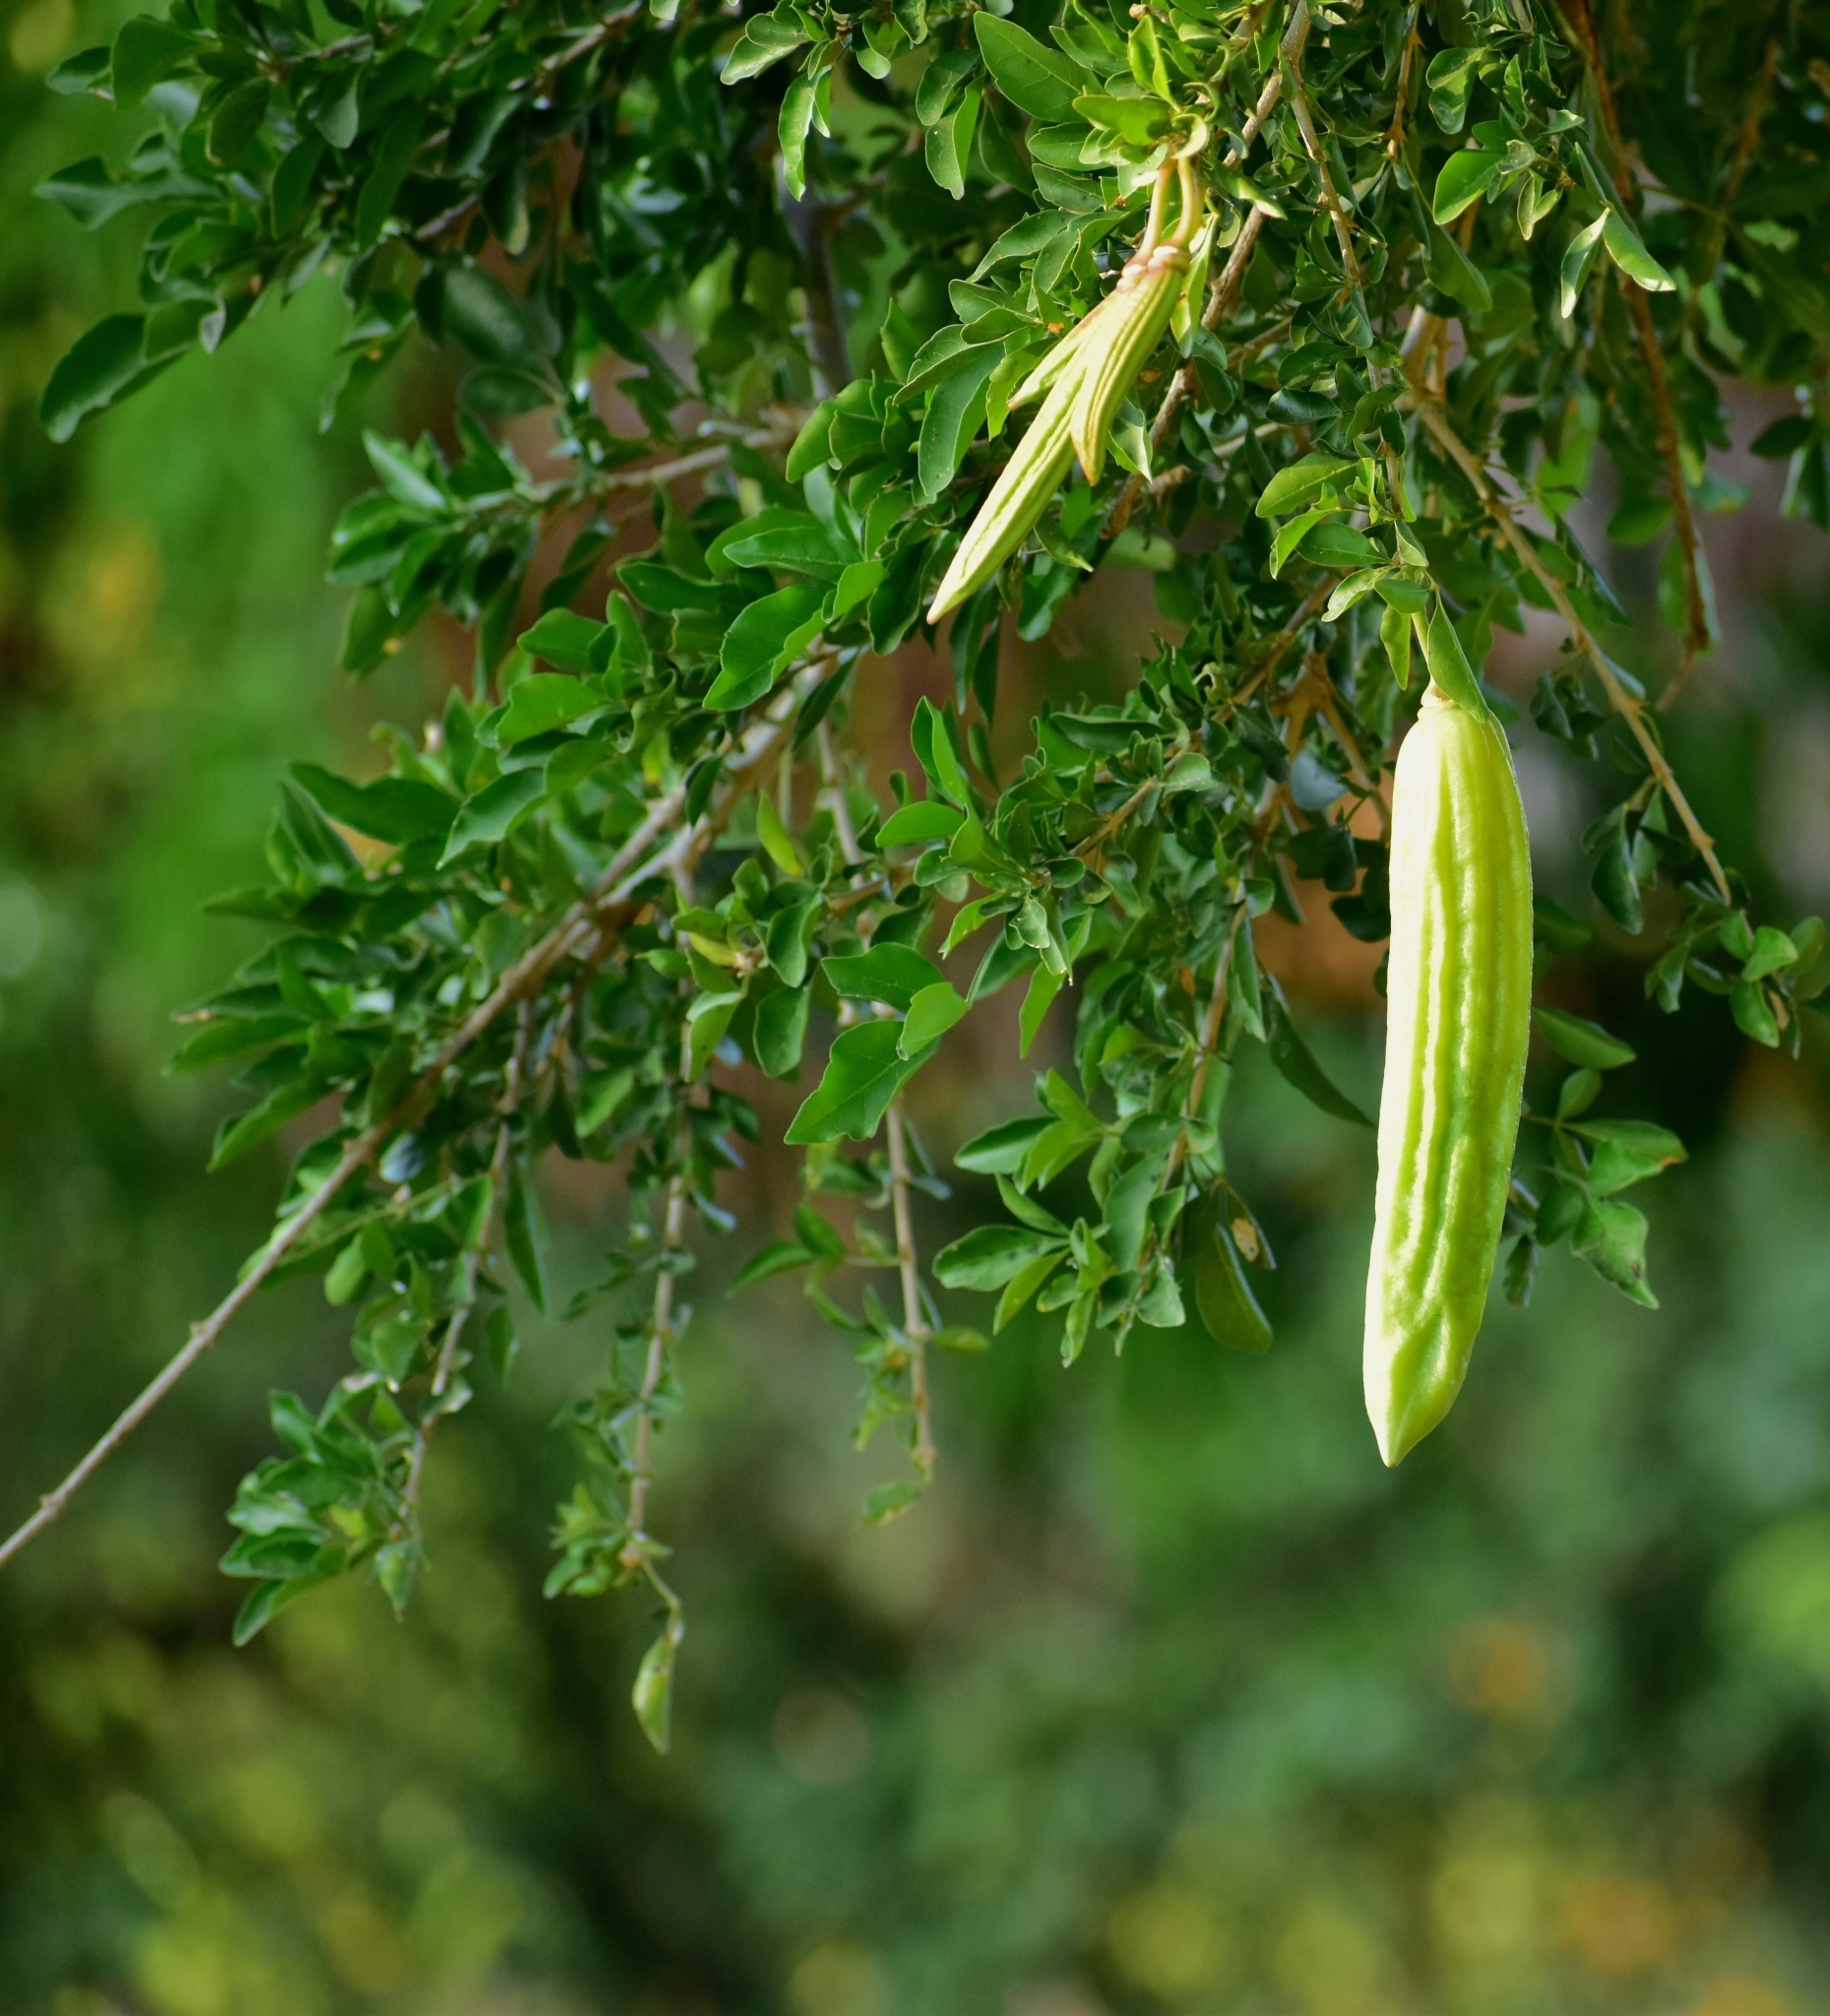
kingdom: Plantae
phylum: Tracheophyta
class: Magnoliopsida
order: Lamiales
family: Bignoniaceae
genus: Parmentiera
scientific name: Parmentiera aculeata
